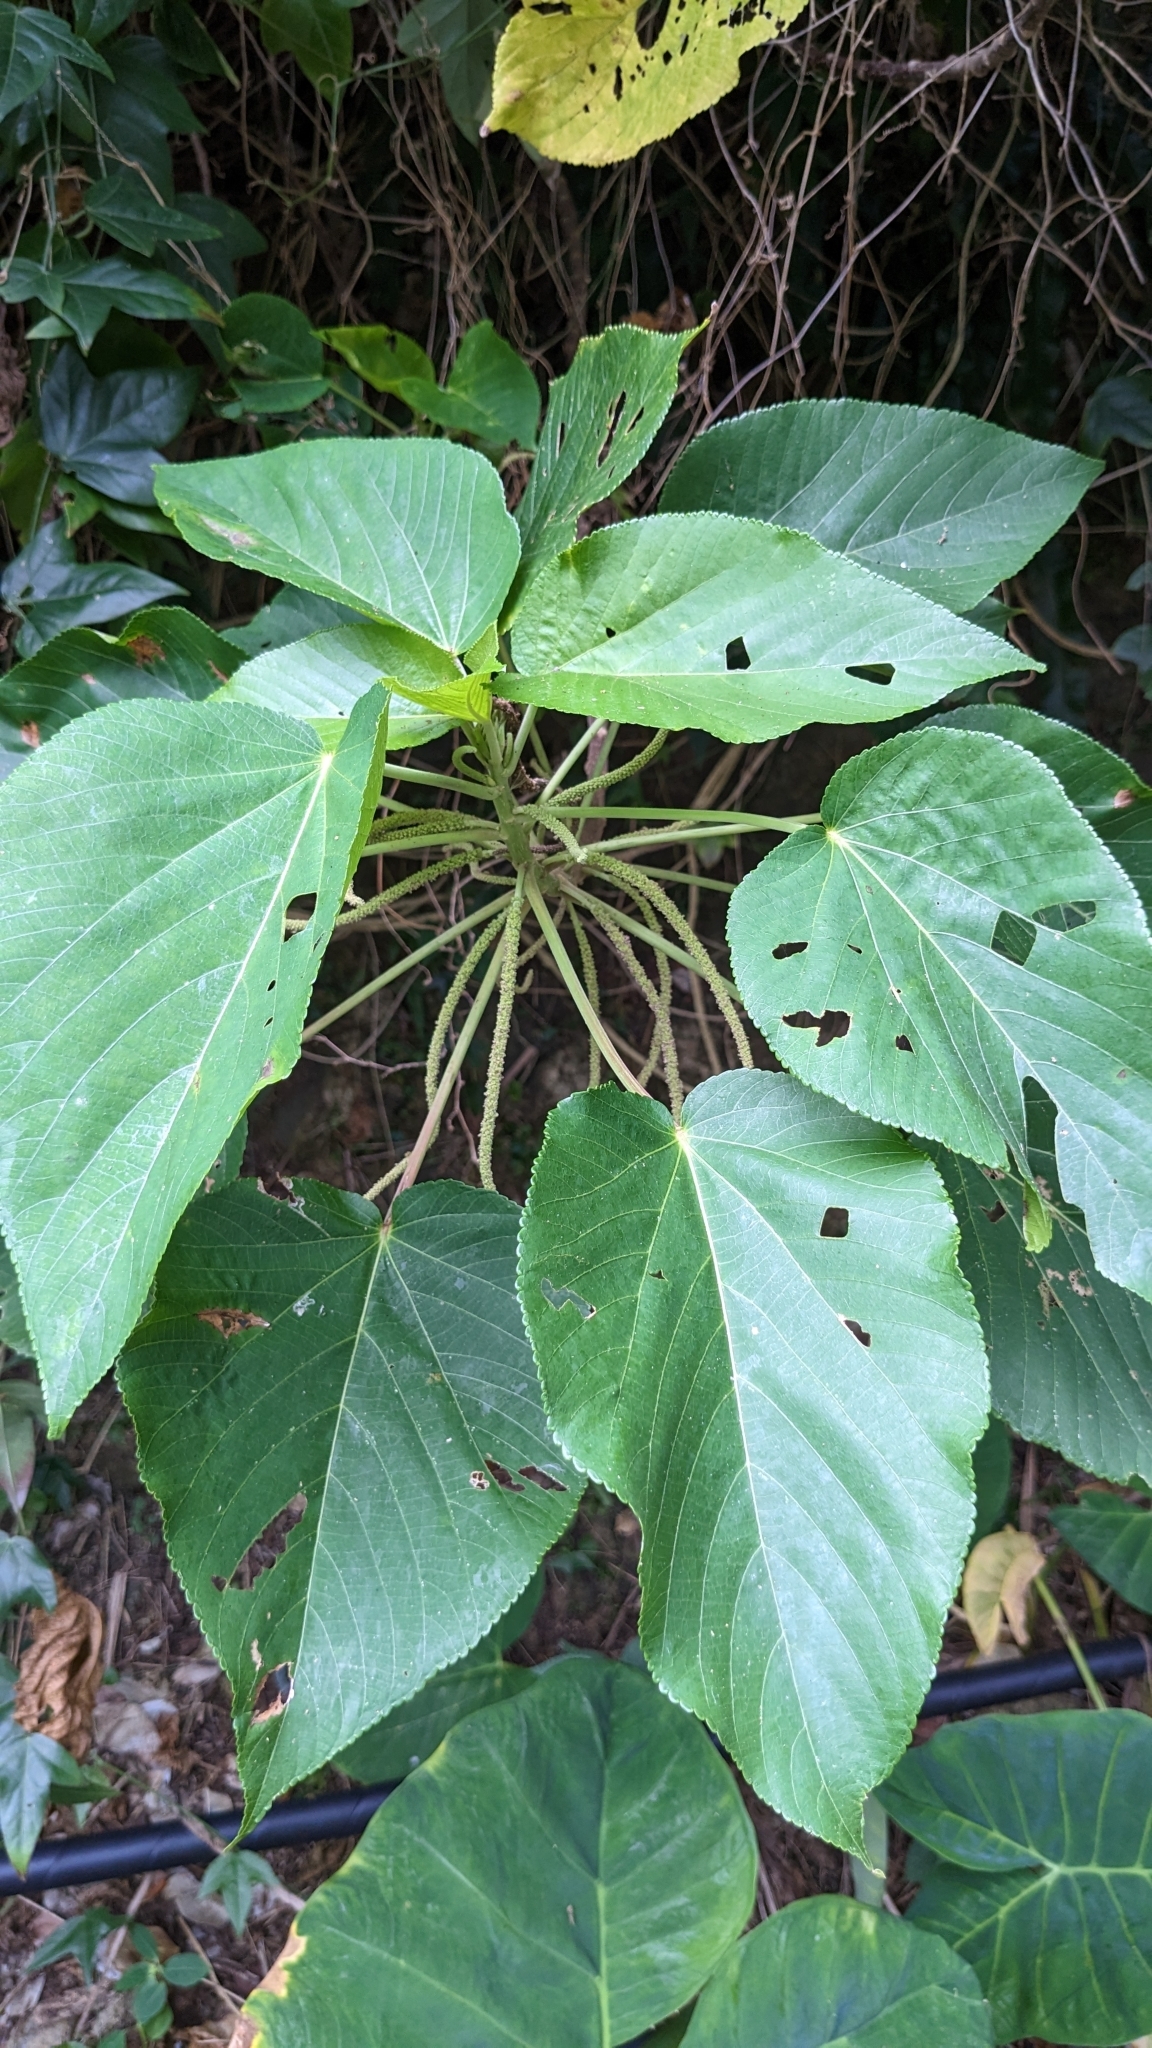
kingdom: Plantae
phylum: Tracheophyta
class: Magnoliopsida
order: Malpighiales
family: Euphorbiaceae
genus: Acalypha
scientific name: Acalypha grandibracteata
